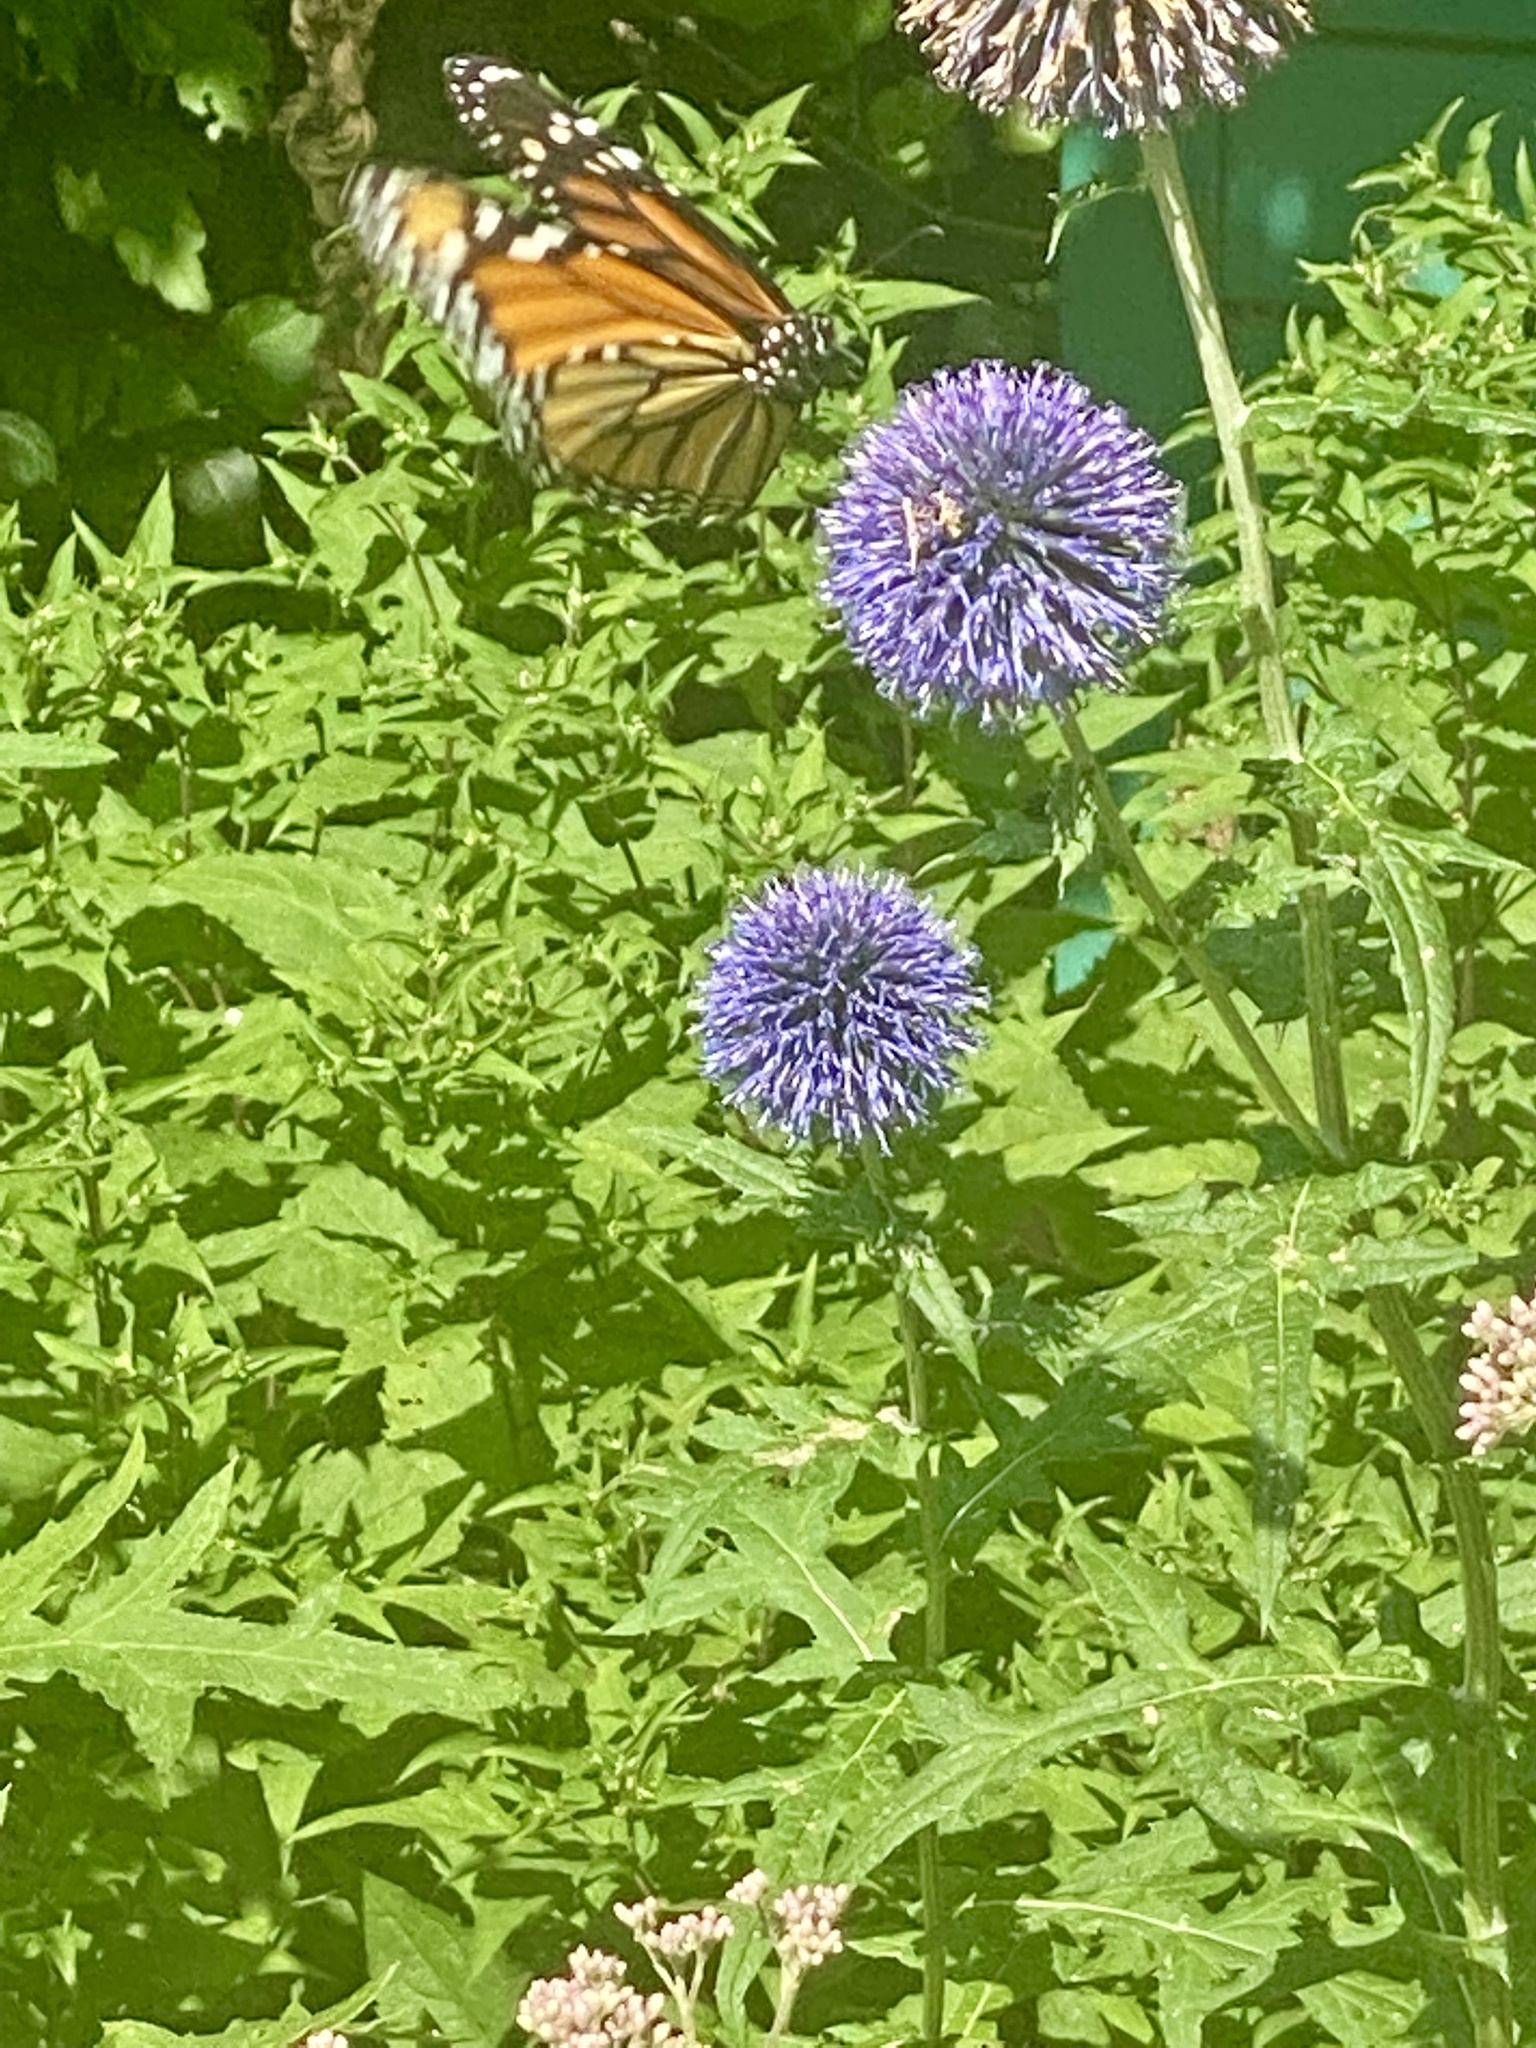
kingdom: Animalia
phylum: Arthropoda
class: Insecta
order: Lepidoptera
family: Nymphalidae
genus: Danaus
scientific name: Danaus plexippus
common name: Monarch
